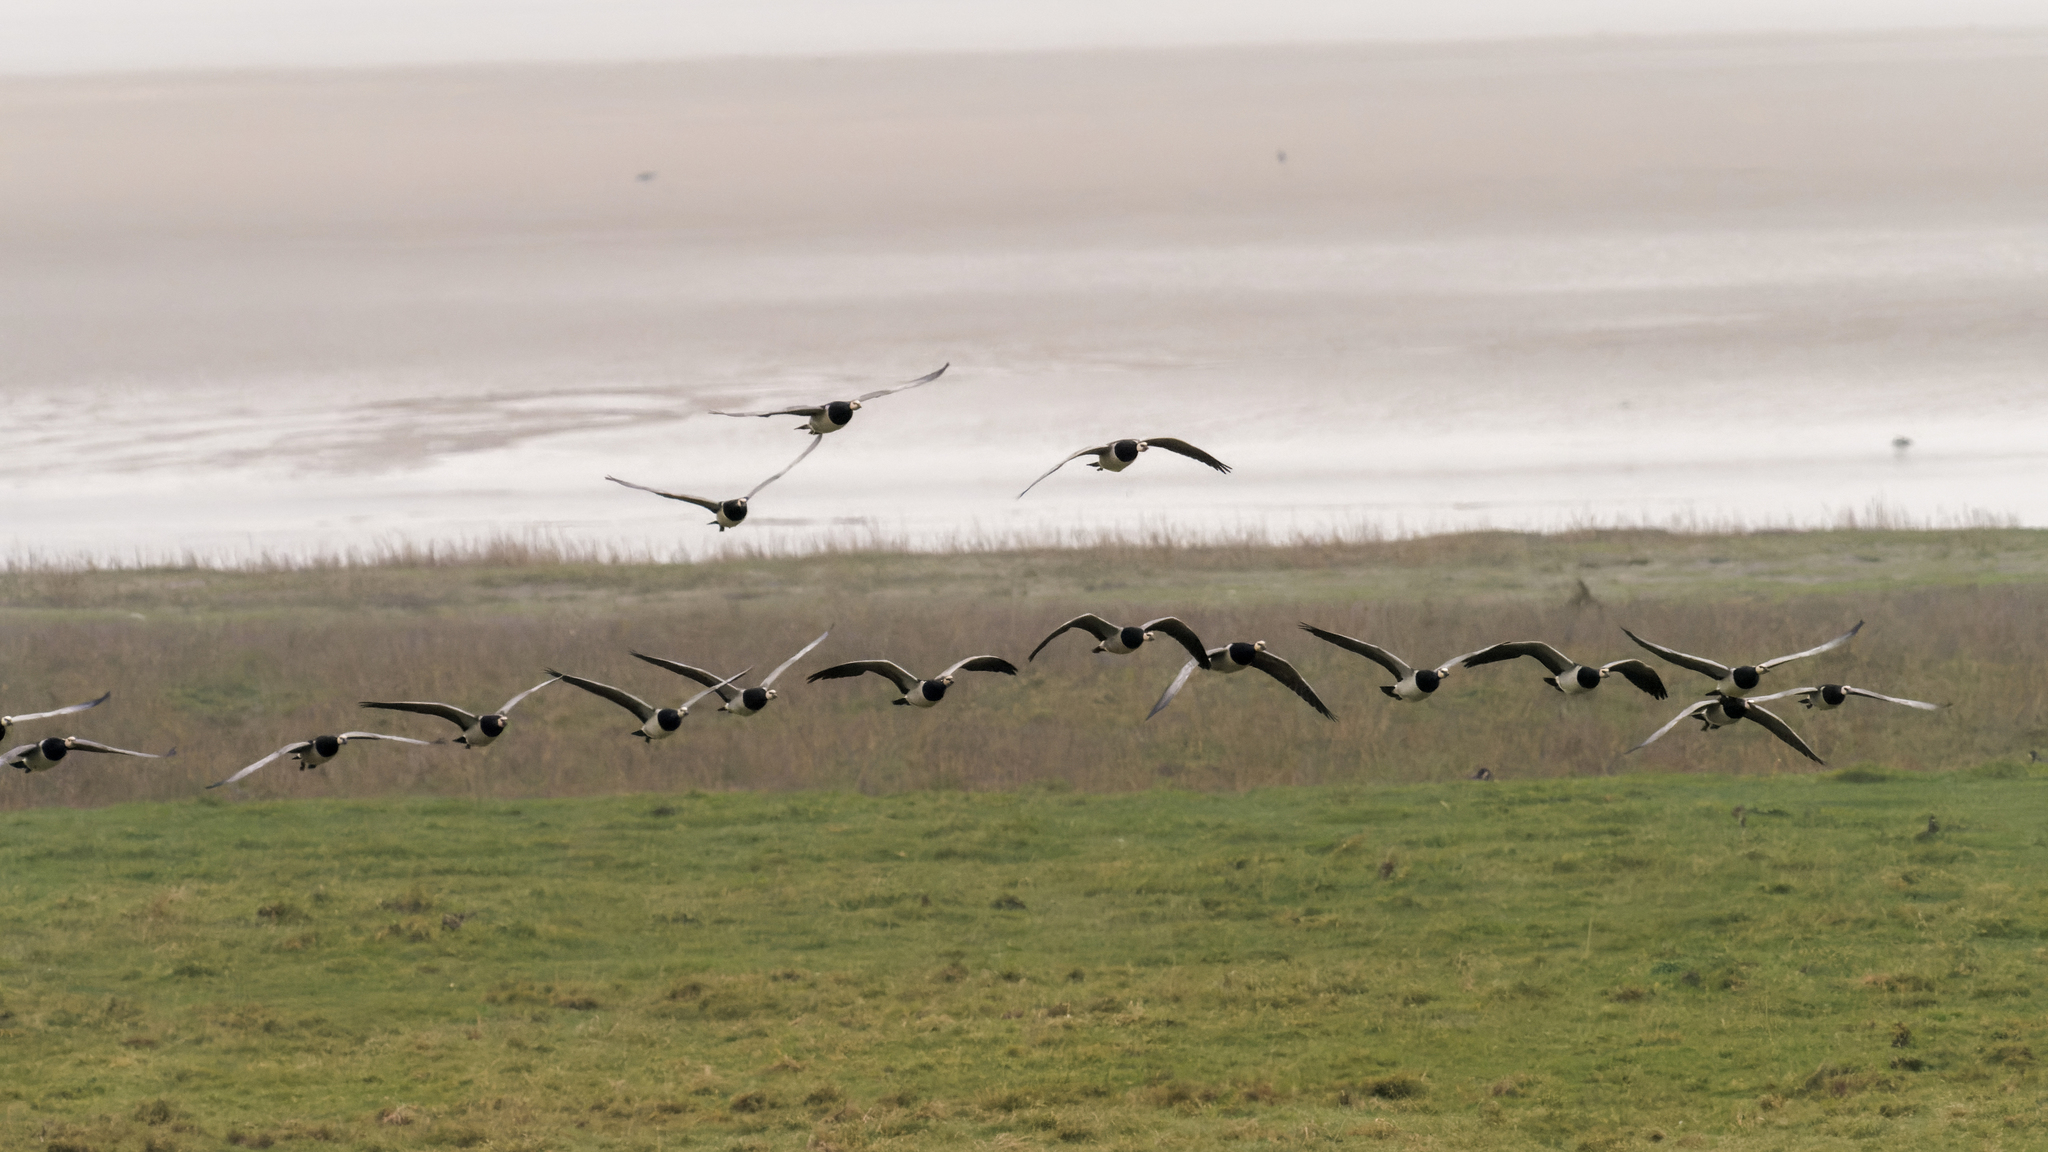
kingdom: Animalia
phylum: Chordata
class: Aves
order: Anseriformes
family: Anatidae
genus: Branta
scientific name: Branta leucopsis
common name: Barnacle goose
